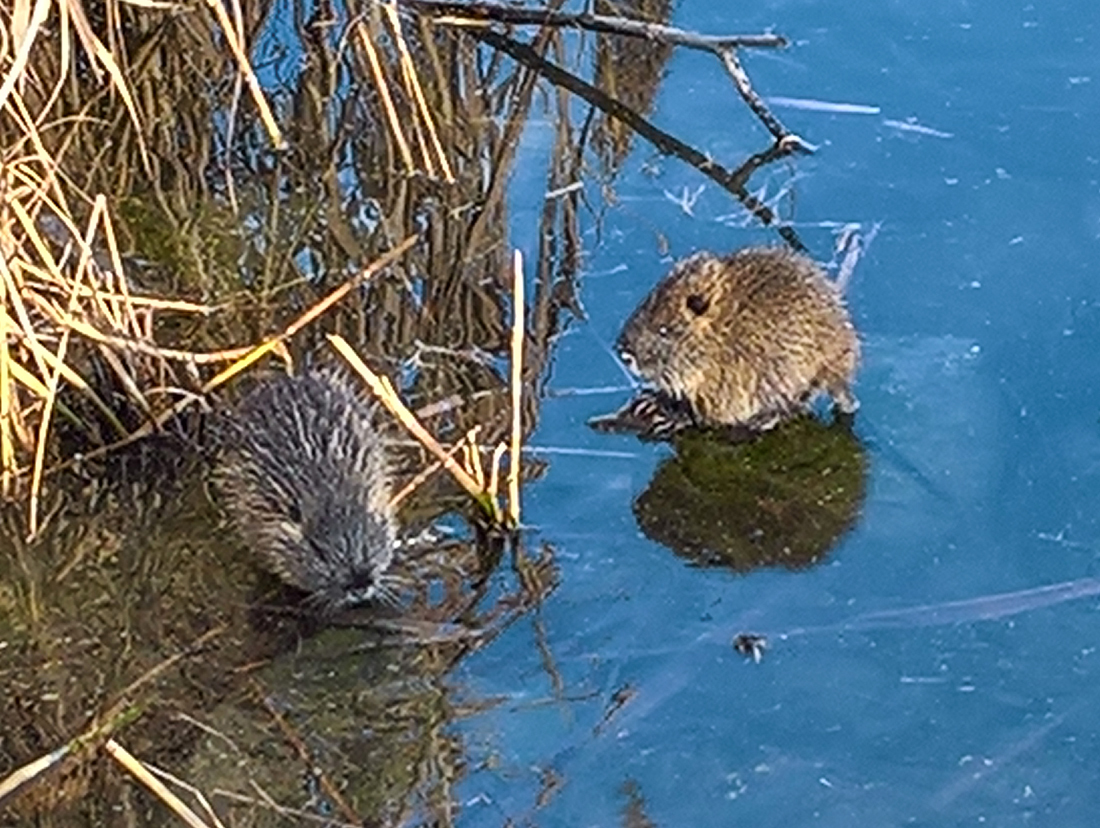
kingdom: Animalia
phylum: Chordata
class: Mammalia
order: Rodentia
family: Myocastoridae
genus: Myocastor
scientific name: Myocastor coypus
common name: Coypu
